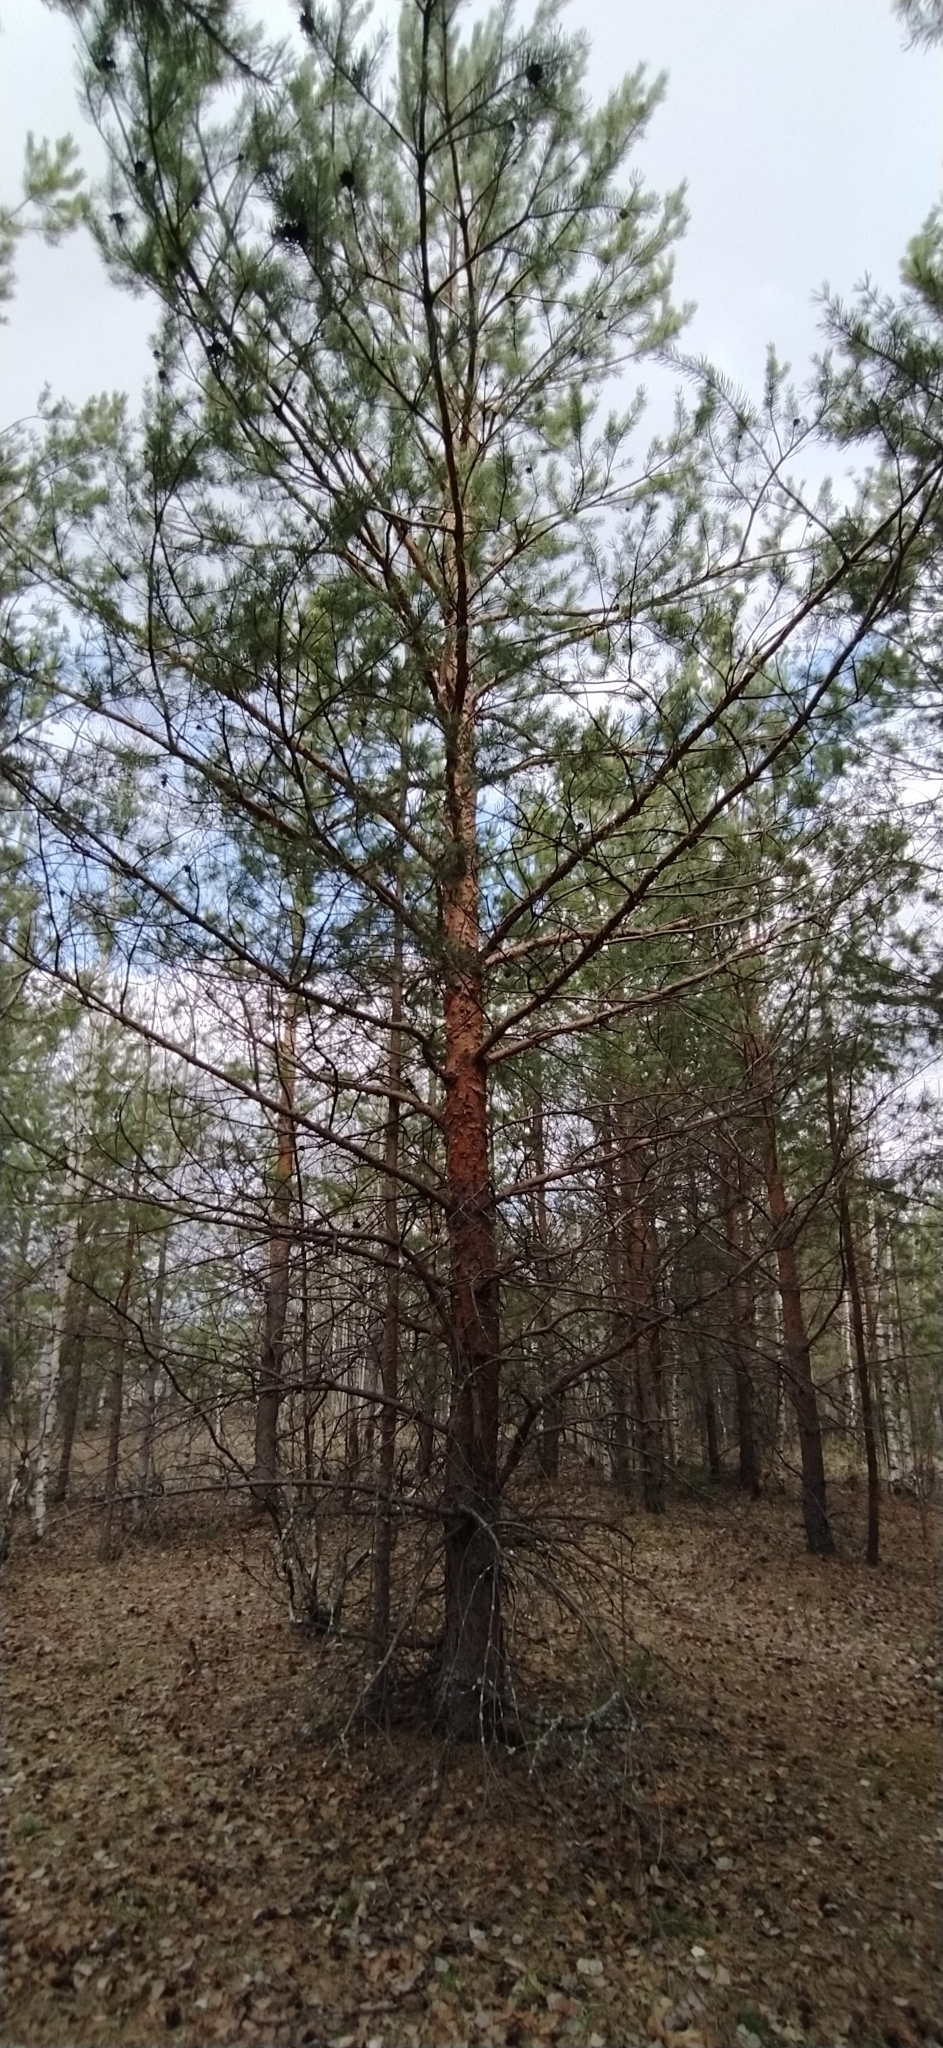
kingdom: Plantae
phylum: Tracheophyta
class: Pinopsida
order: Pinales
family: Pinaceae
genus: Pinus
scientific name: Pinus sylvestris
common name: Scots pine
